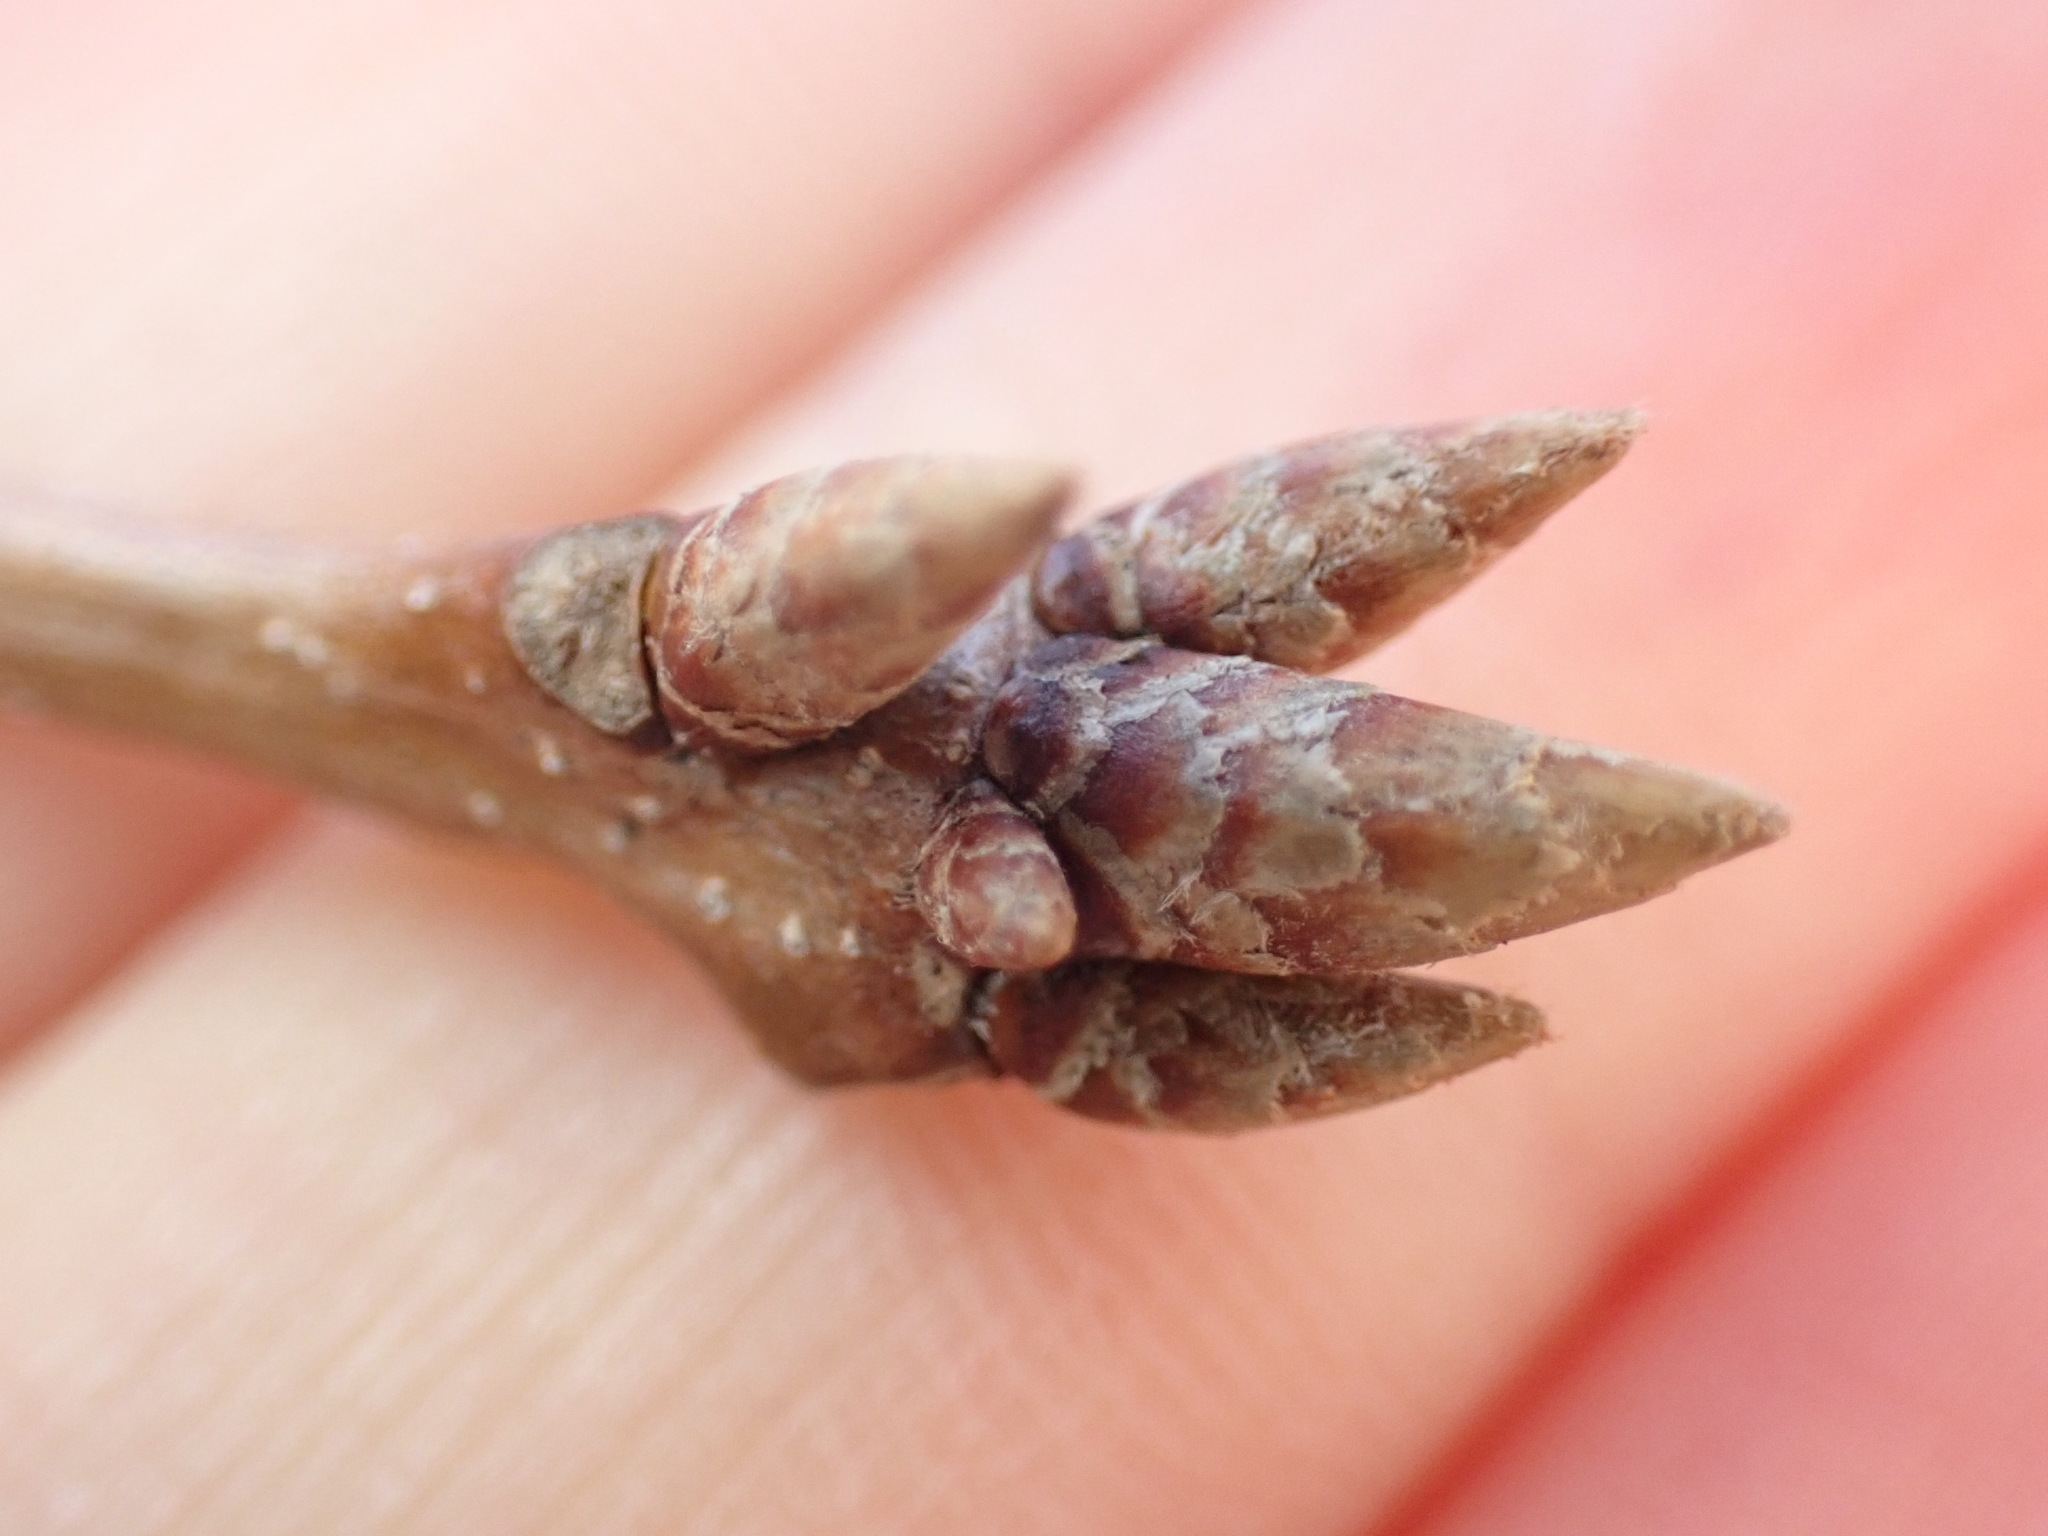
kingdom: Plantae
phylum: Tracheophyta
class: Magnoliopsida
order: Fagales
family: Fagaceae
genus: Quercus
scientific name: Quercus montana
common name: Chestnut oak
